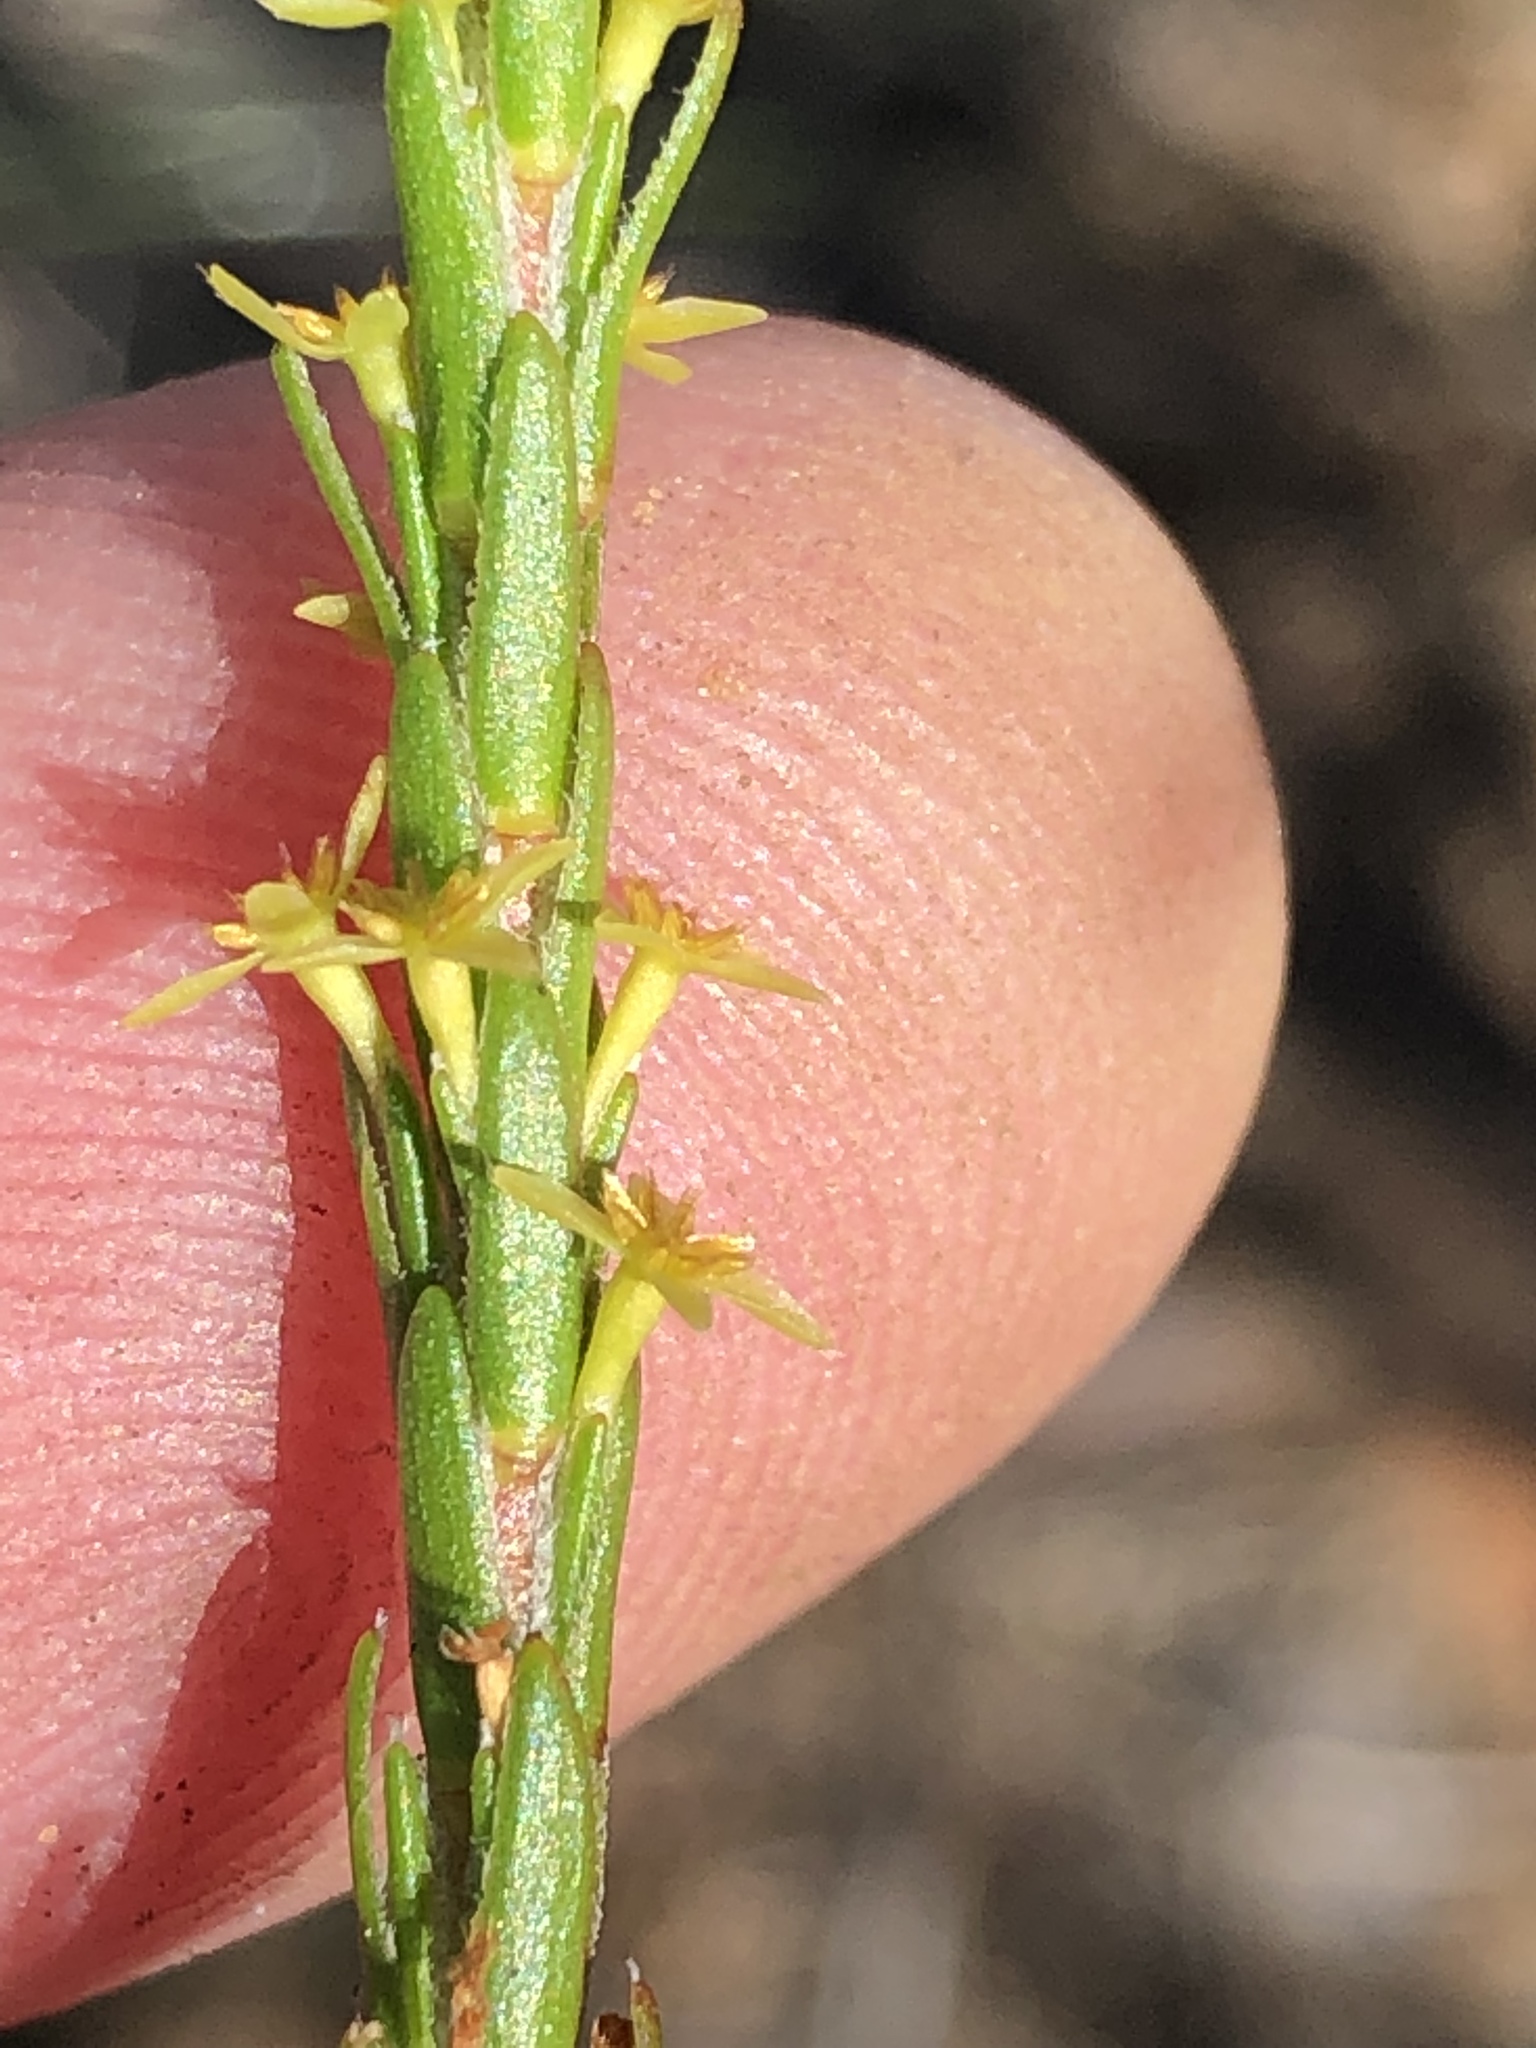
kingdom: Plantae
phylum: Tracheophyta
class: Magnoliopsida
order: Malvales
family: Thymelaeaceae
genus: Struthiola
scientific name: Struthiola parviflora
